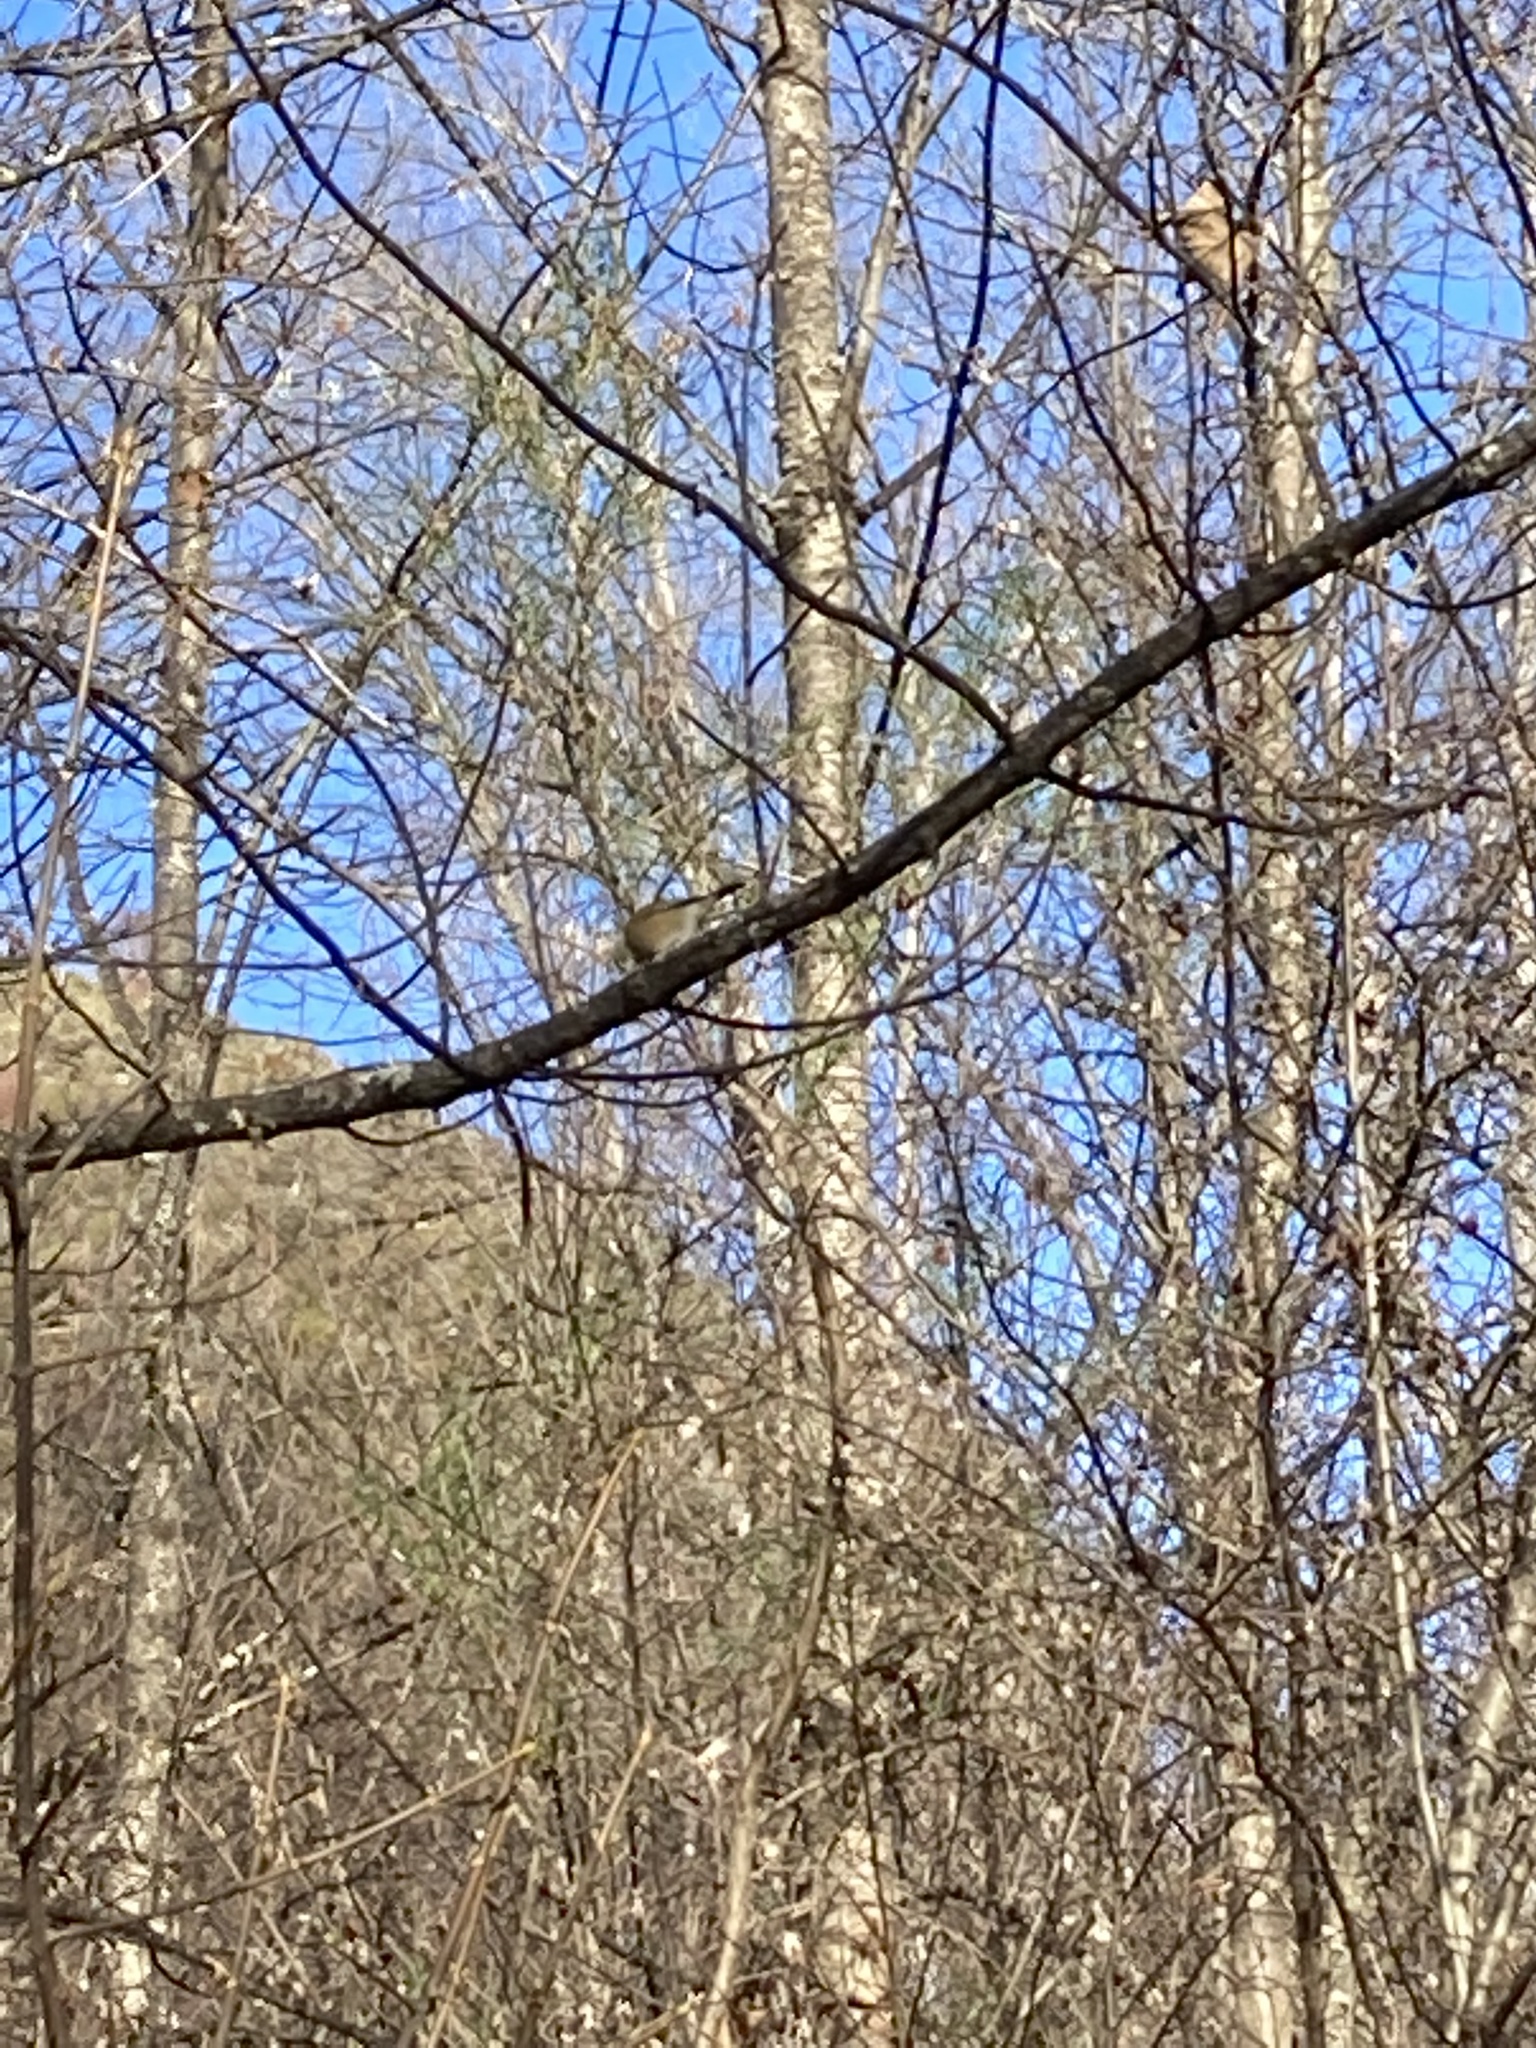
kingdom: Animalia
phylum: Chordata
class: Aves
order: Passeriformes
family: Zosteropidae
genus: Zosterops
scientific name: Zosterops lateralis
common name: Silvereye
